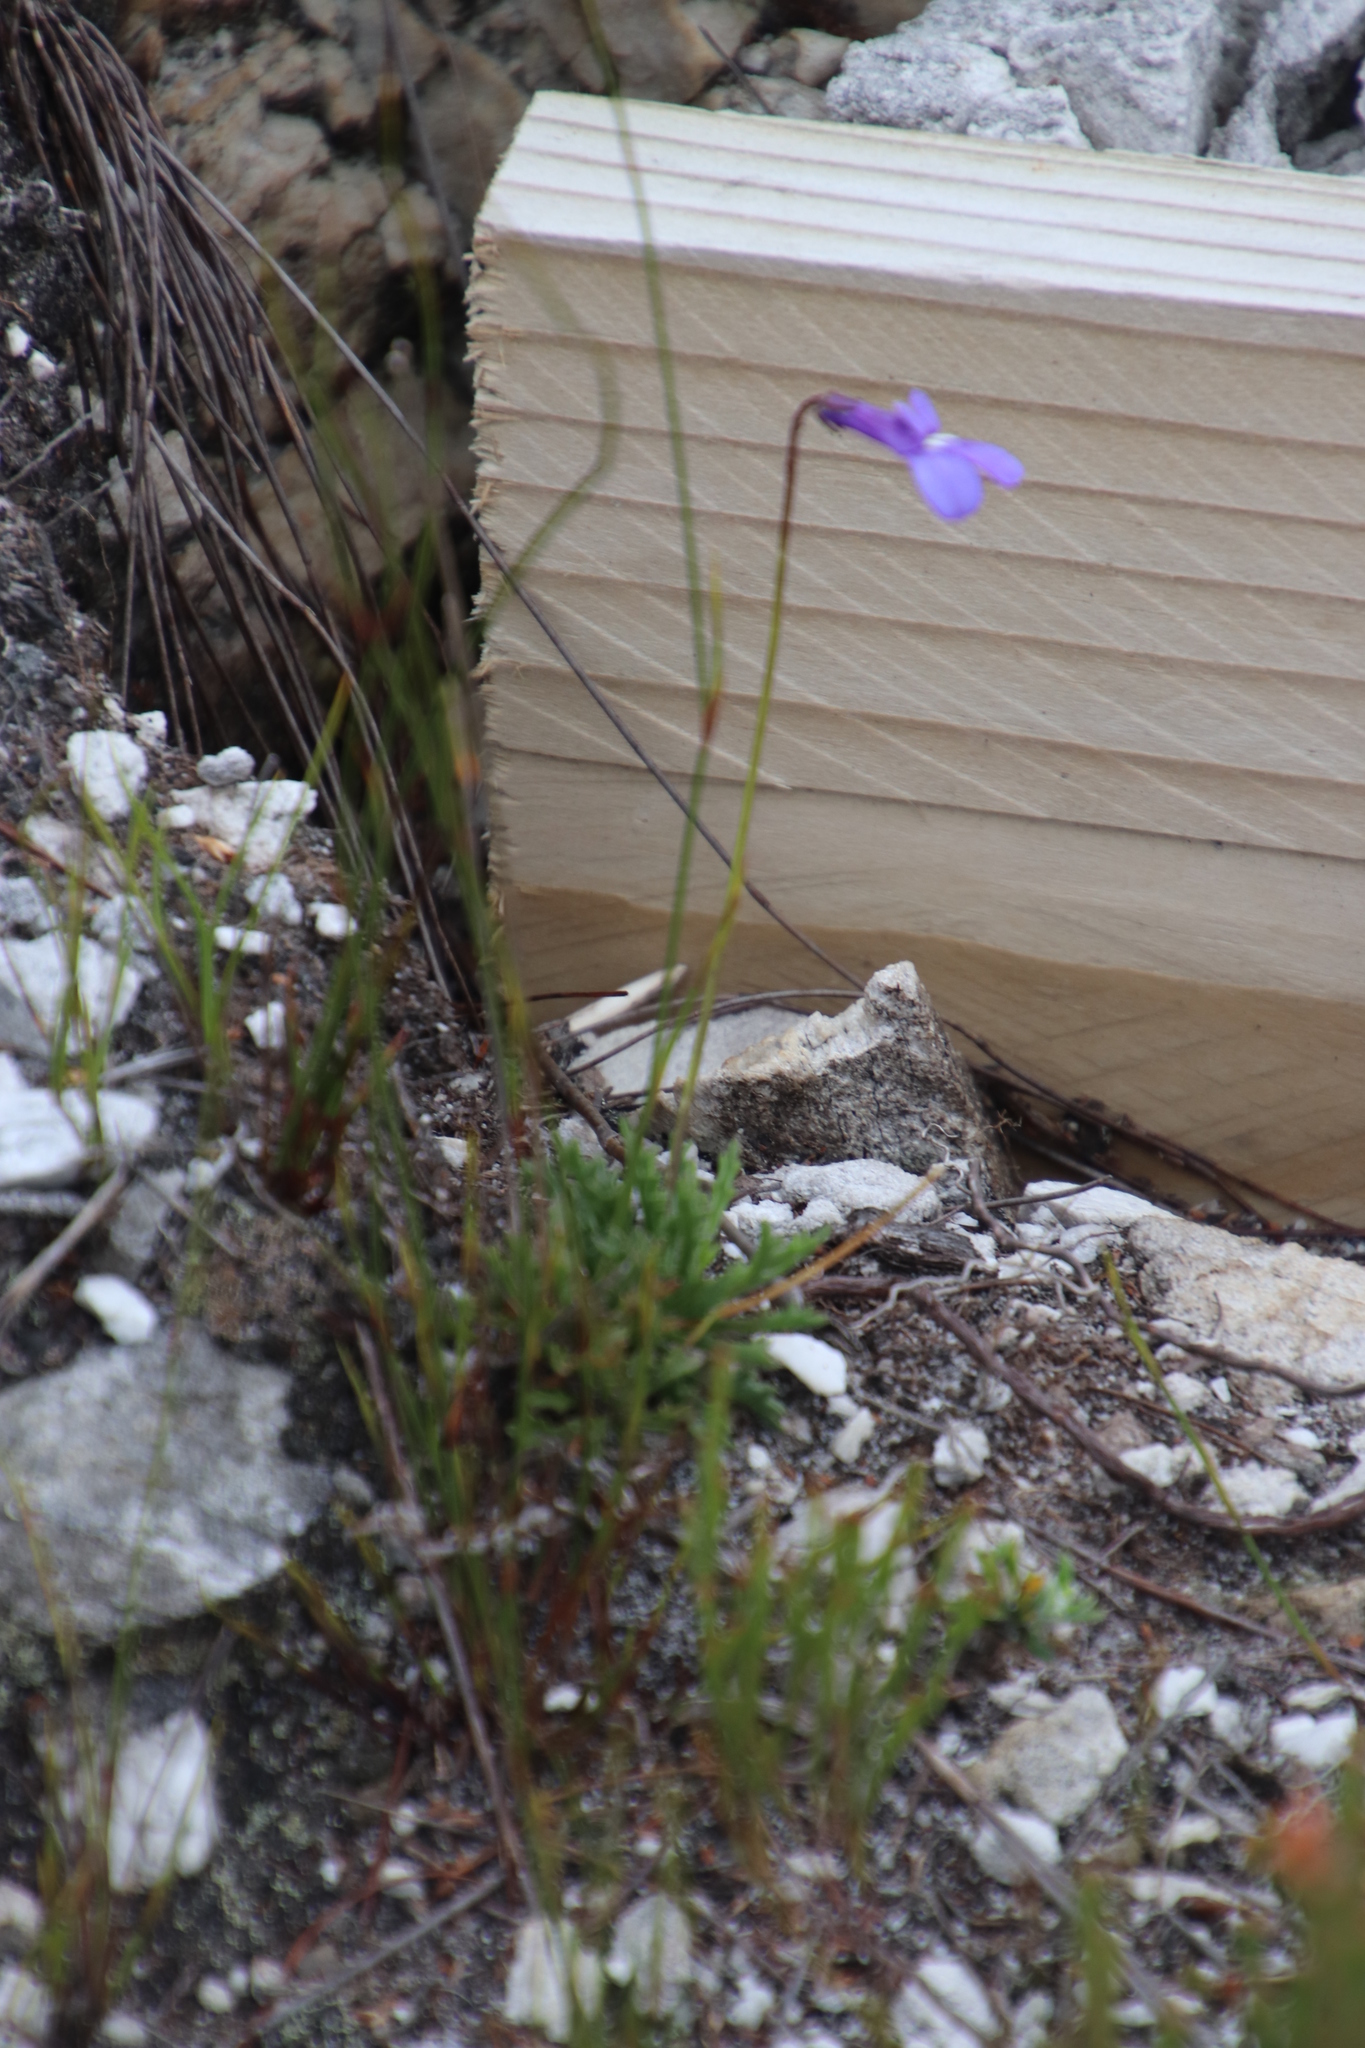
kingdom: Plantae
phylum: Tracheophyta
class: Magnoliopsida
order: Asterales
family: Campanulaceae
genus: Lobelia
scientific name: Lobelia coronopifolia
